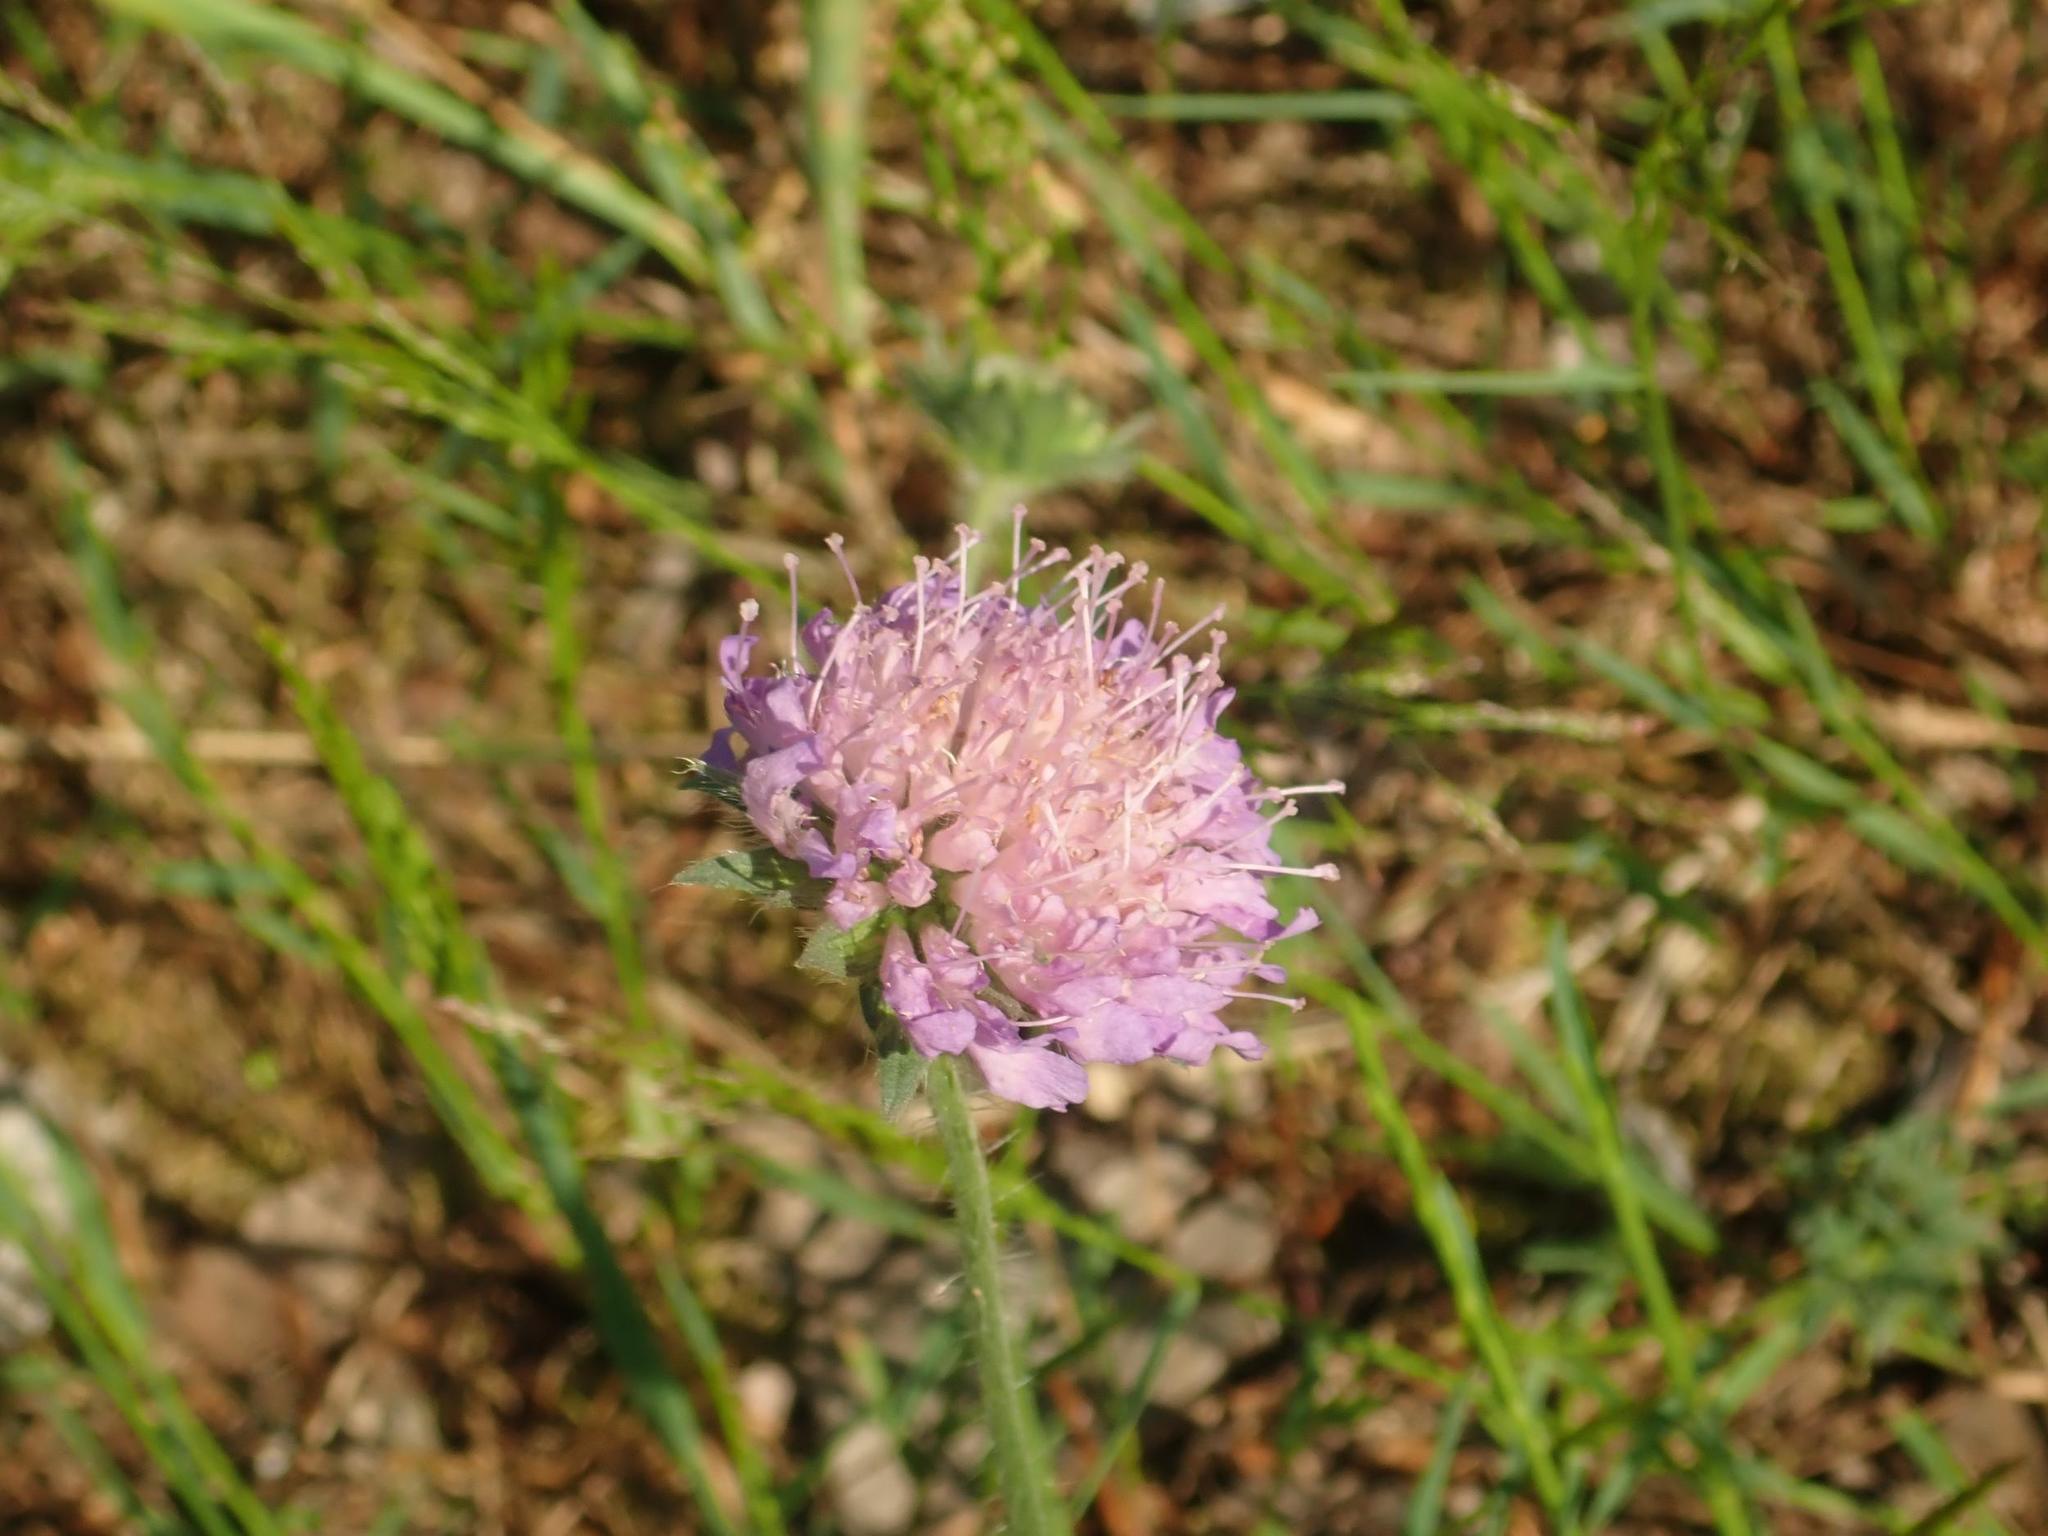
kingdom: Plantae
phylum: Tracheophyta
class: Magnoliopsida
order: Dipsacales
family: Caprifoliaceae
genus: Knautia
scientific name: Knautia arvensis
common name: Field scabiosa
